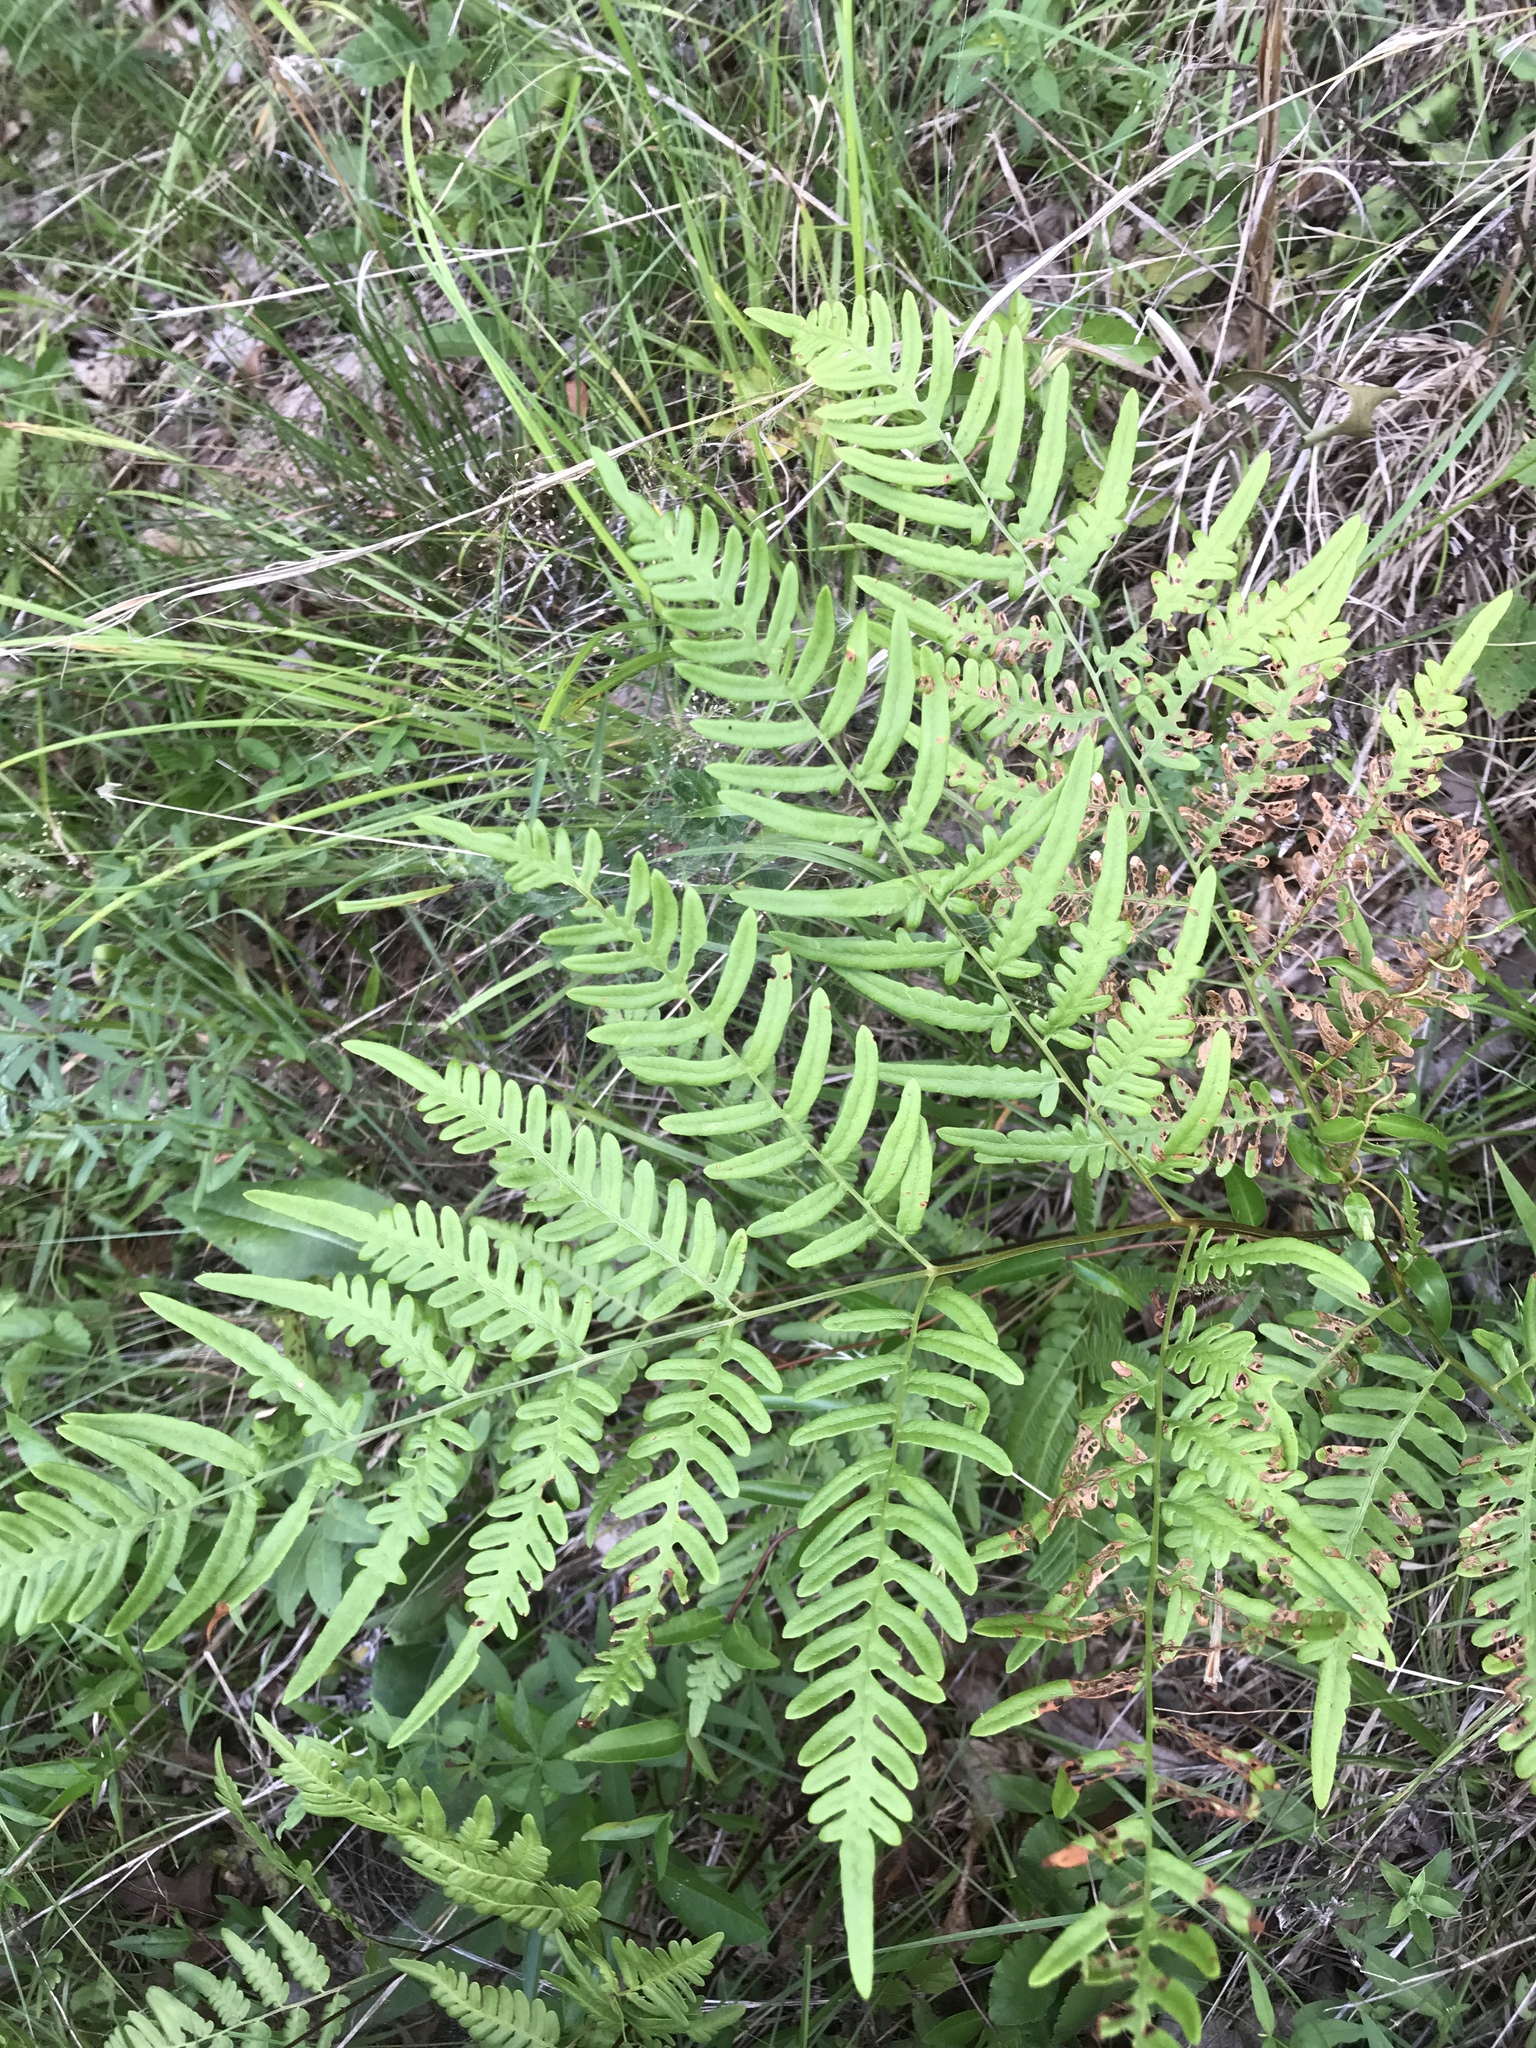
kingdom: Plantae
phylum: Tracheophyta
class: Polypodiopsida
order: Polypodiales
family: Dennstaedtiaceae
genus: Pteridium
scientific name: Pteridium
